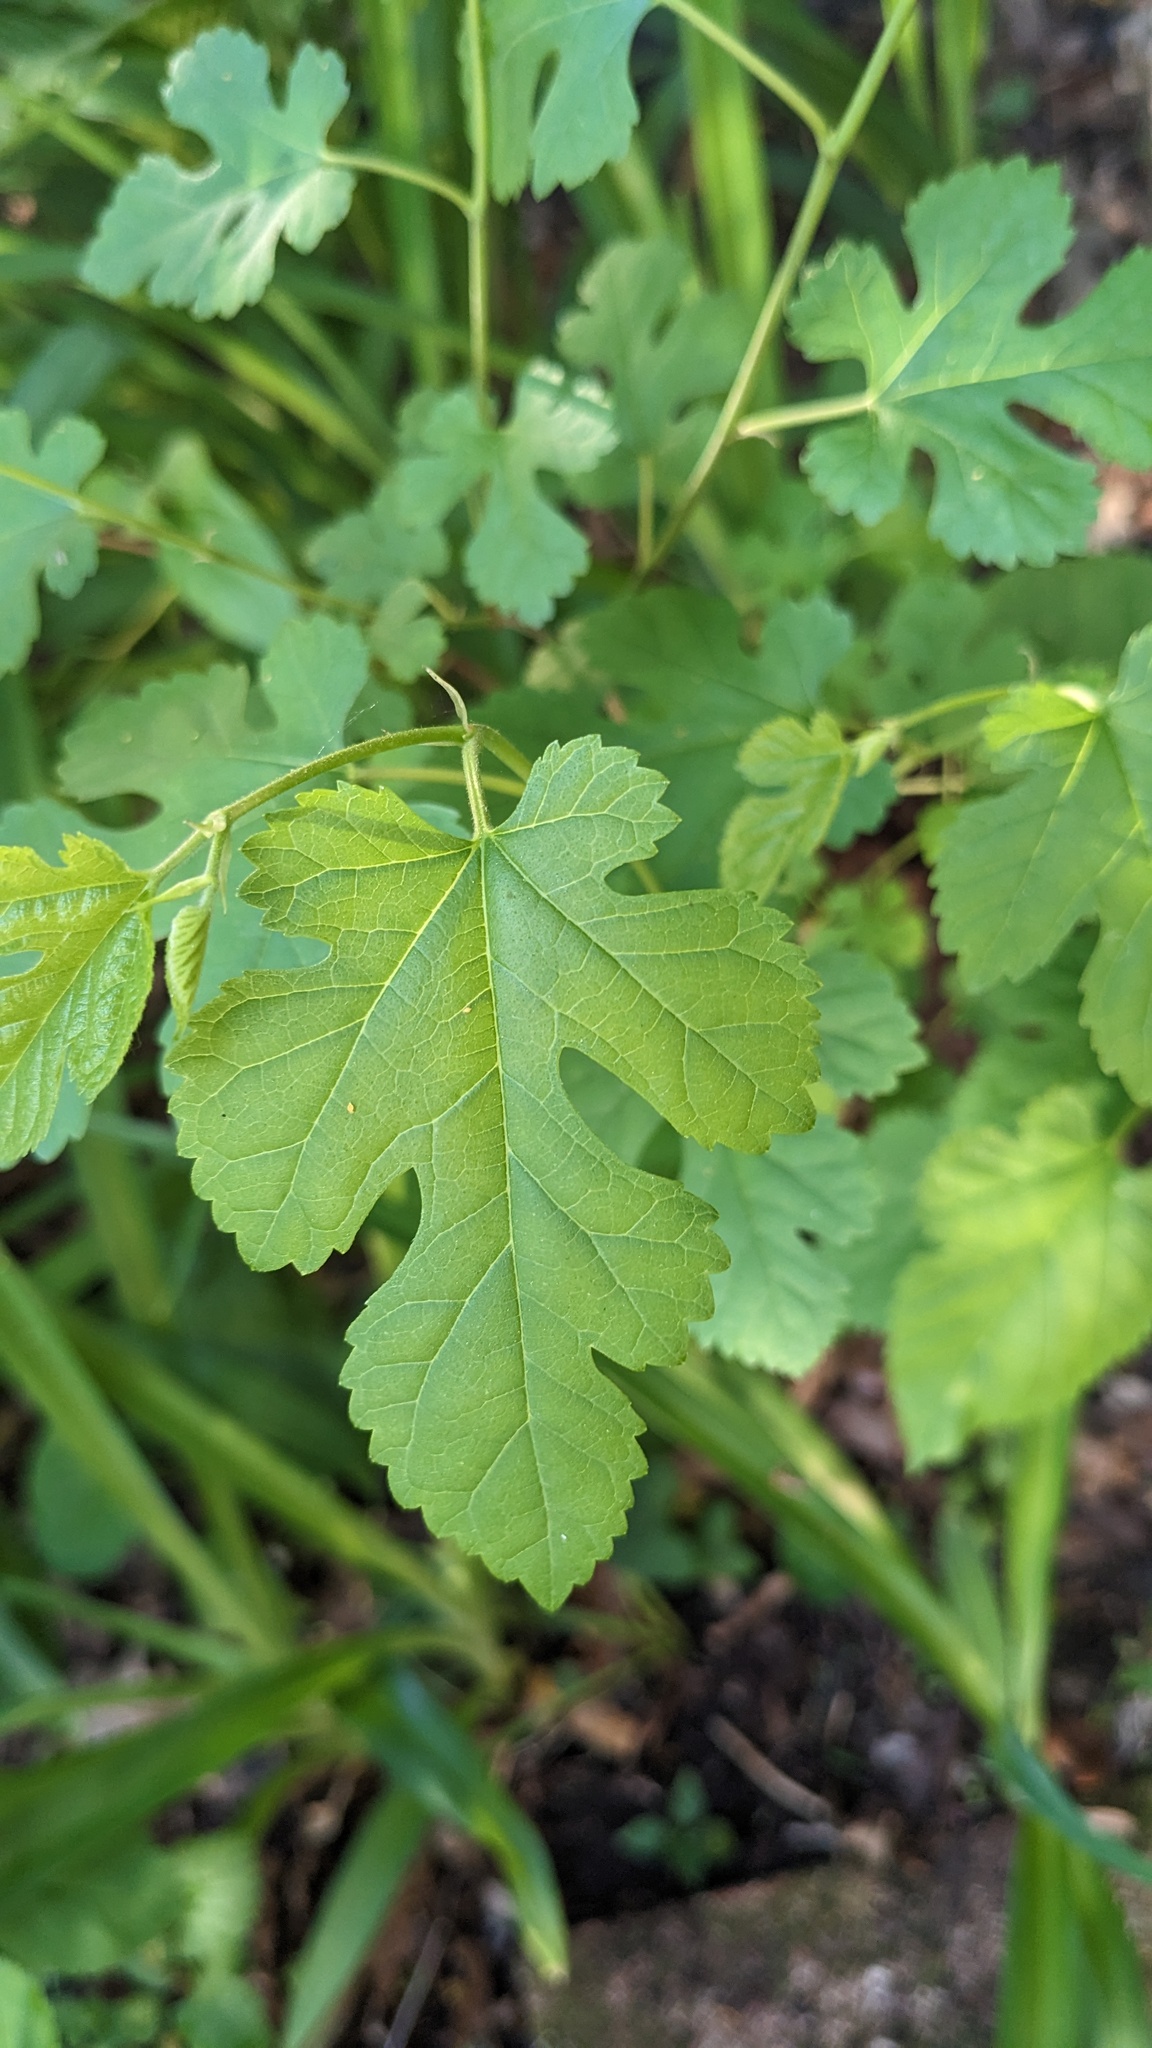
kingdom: Plantae
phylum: Tracheophyta
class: Magnoliopsida
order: Rosales
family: Moraceae
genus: Morus
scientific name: Morus alba
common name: White mulberry
